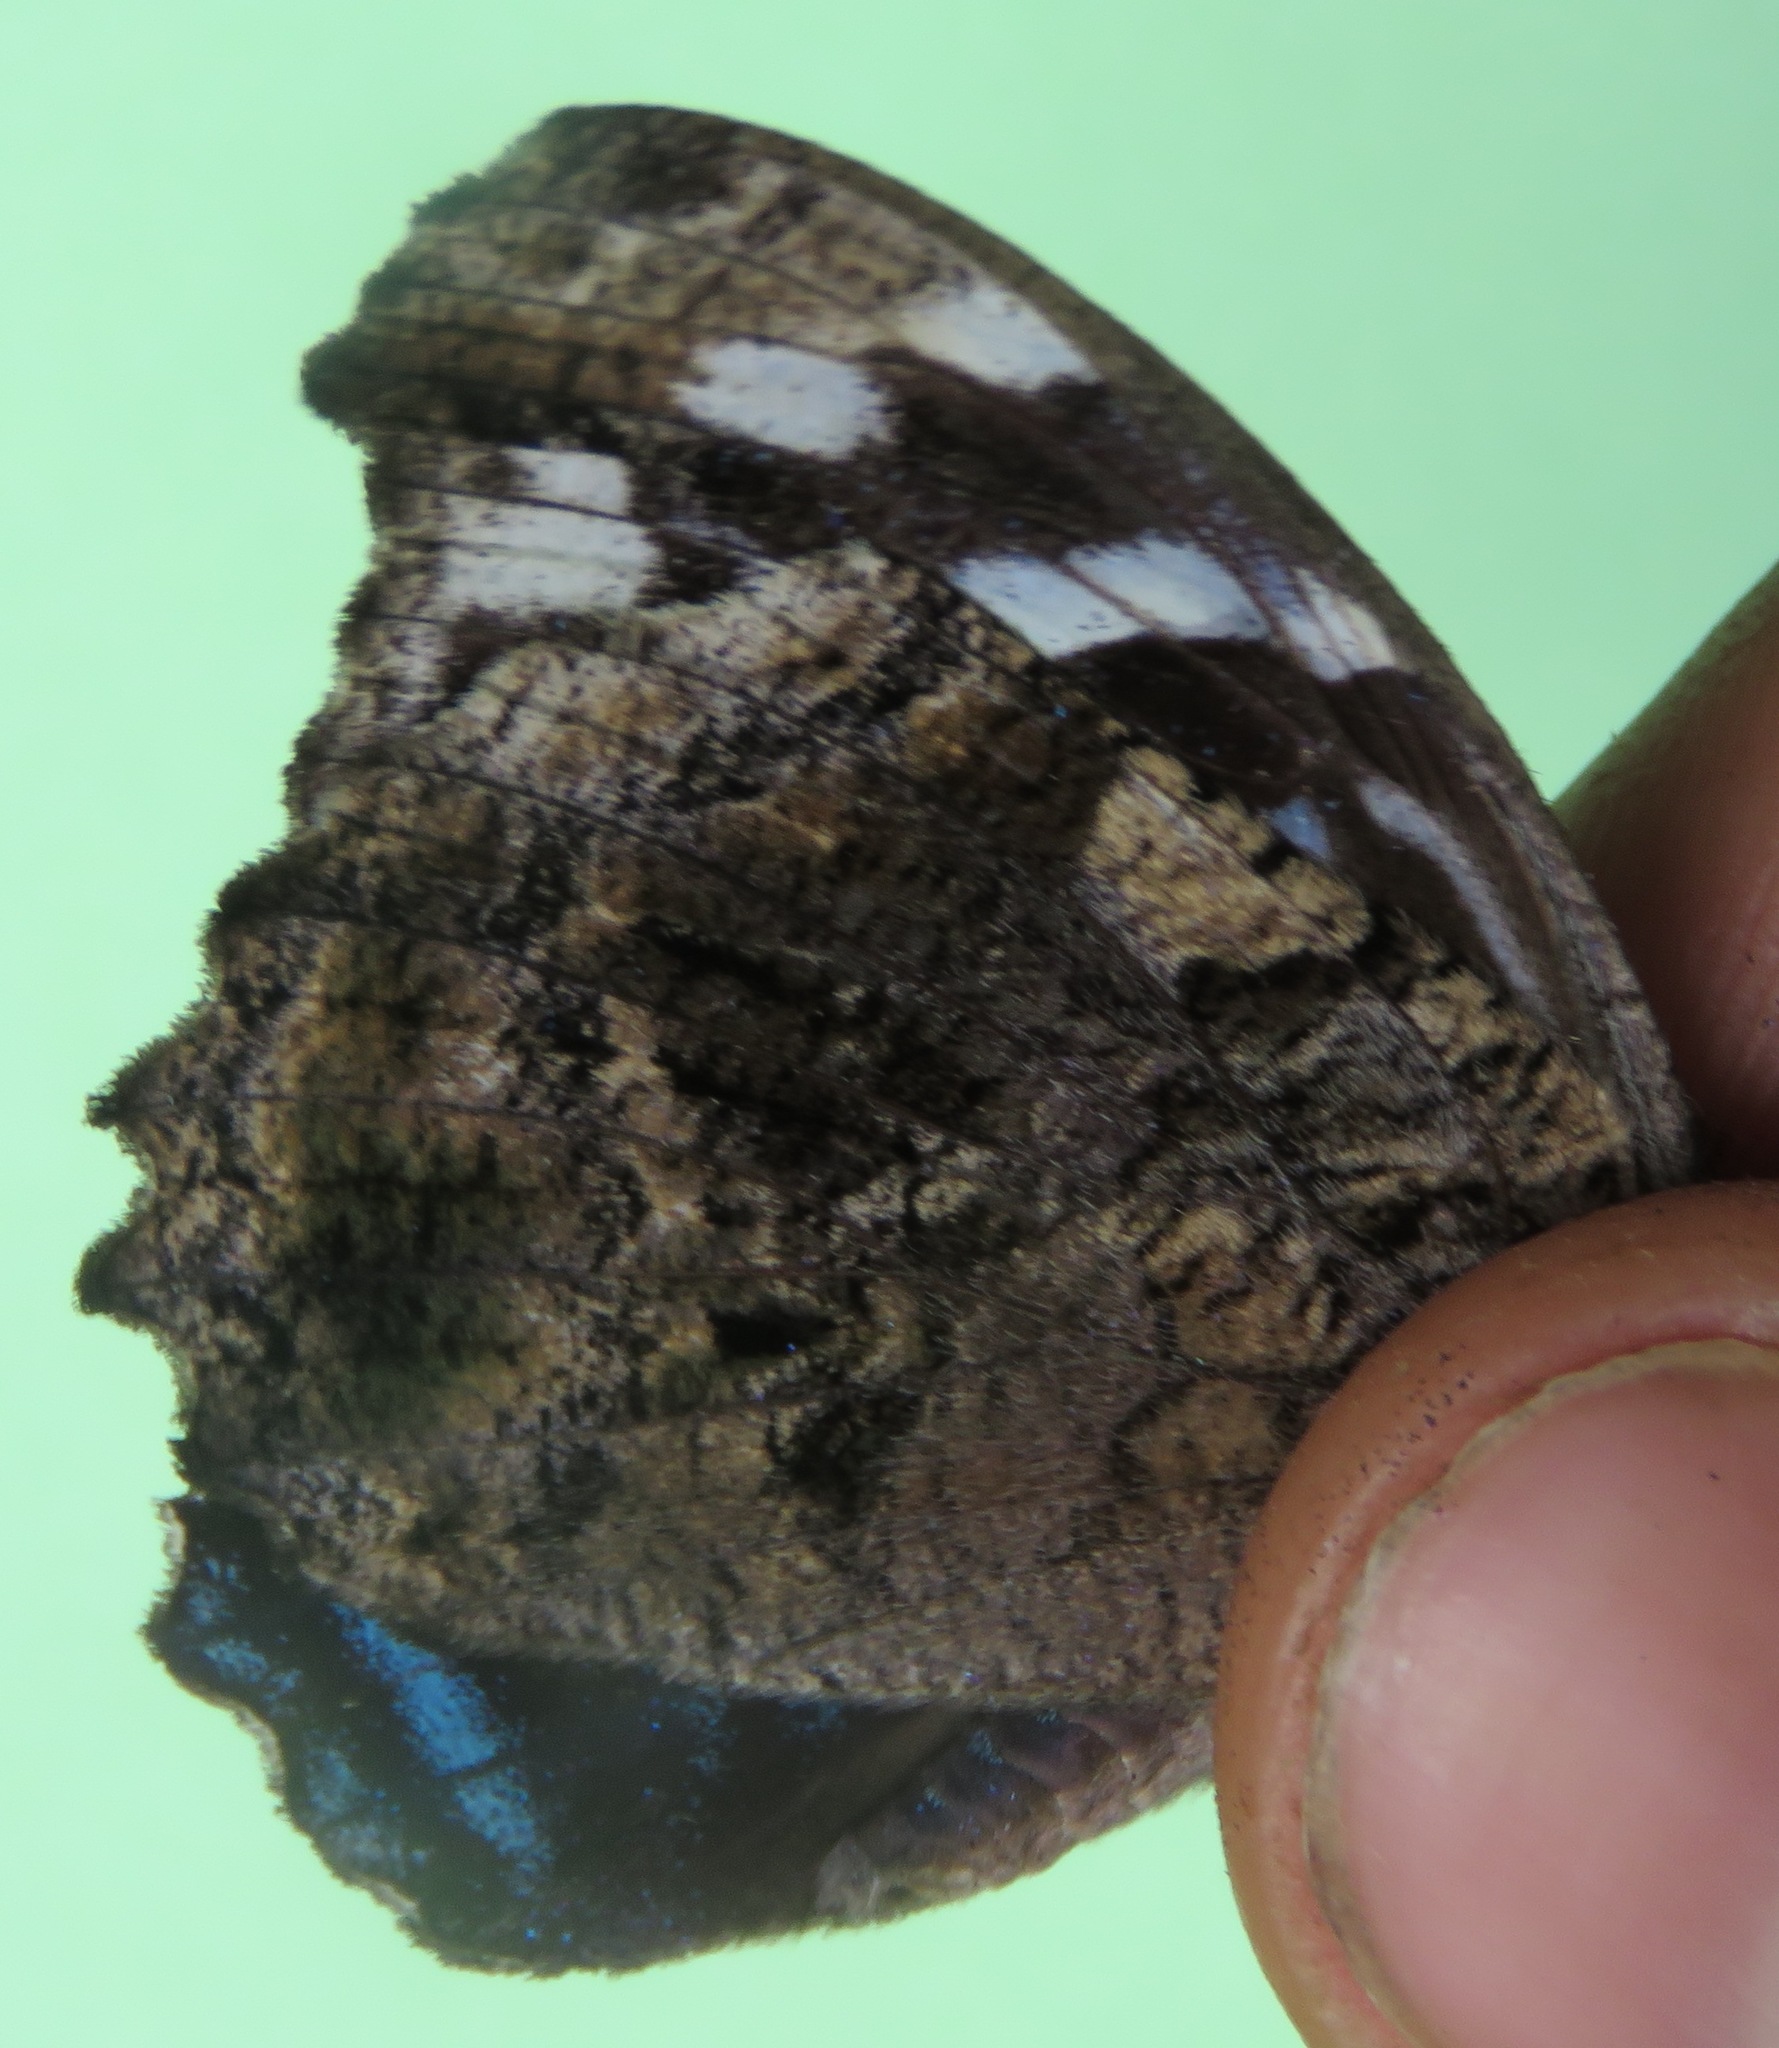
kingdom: Animalia
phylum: Arthropoda
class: Insecta
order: Lepidoptera
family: Nymphalidae
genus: Myscelia
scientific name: Myscelia ethusa
